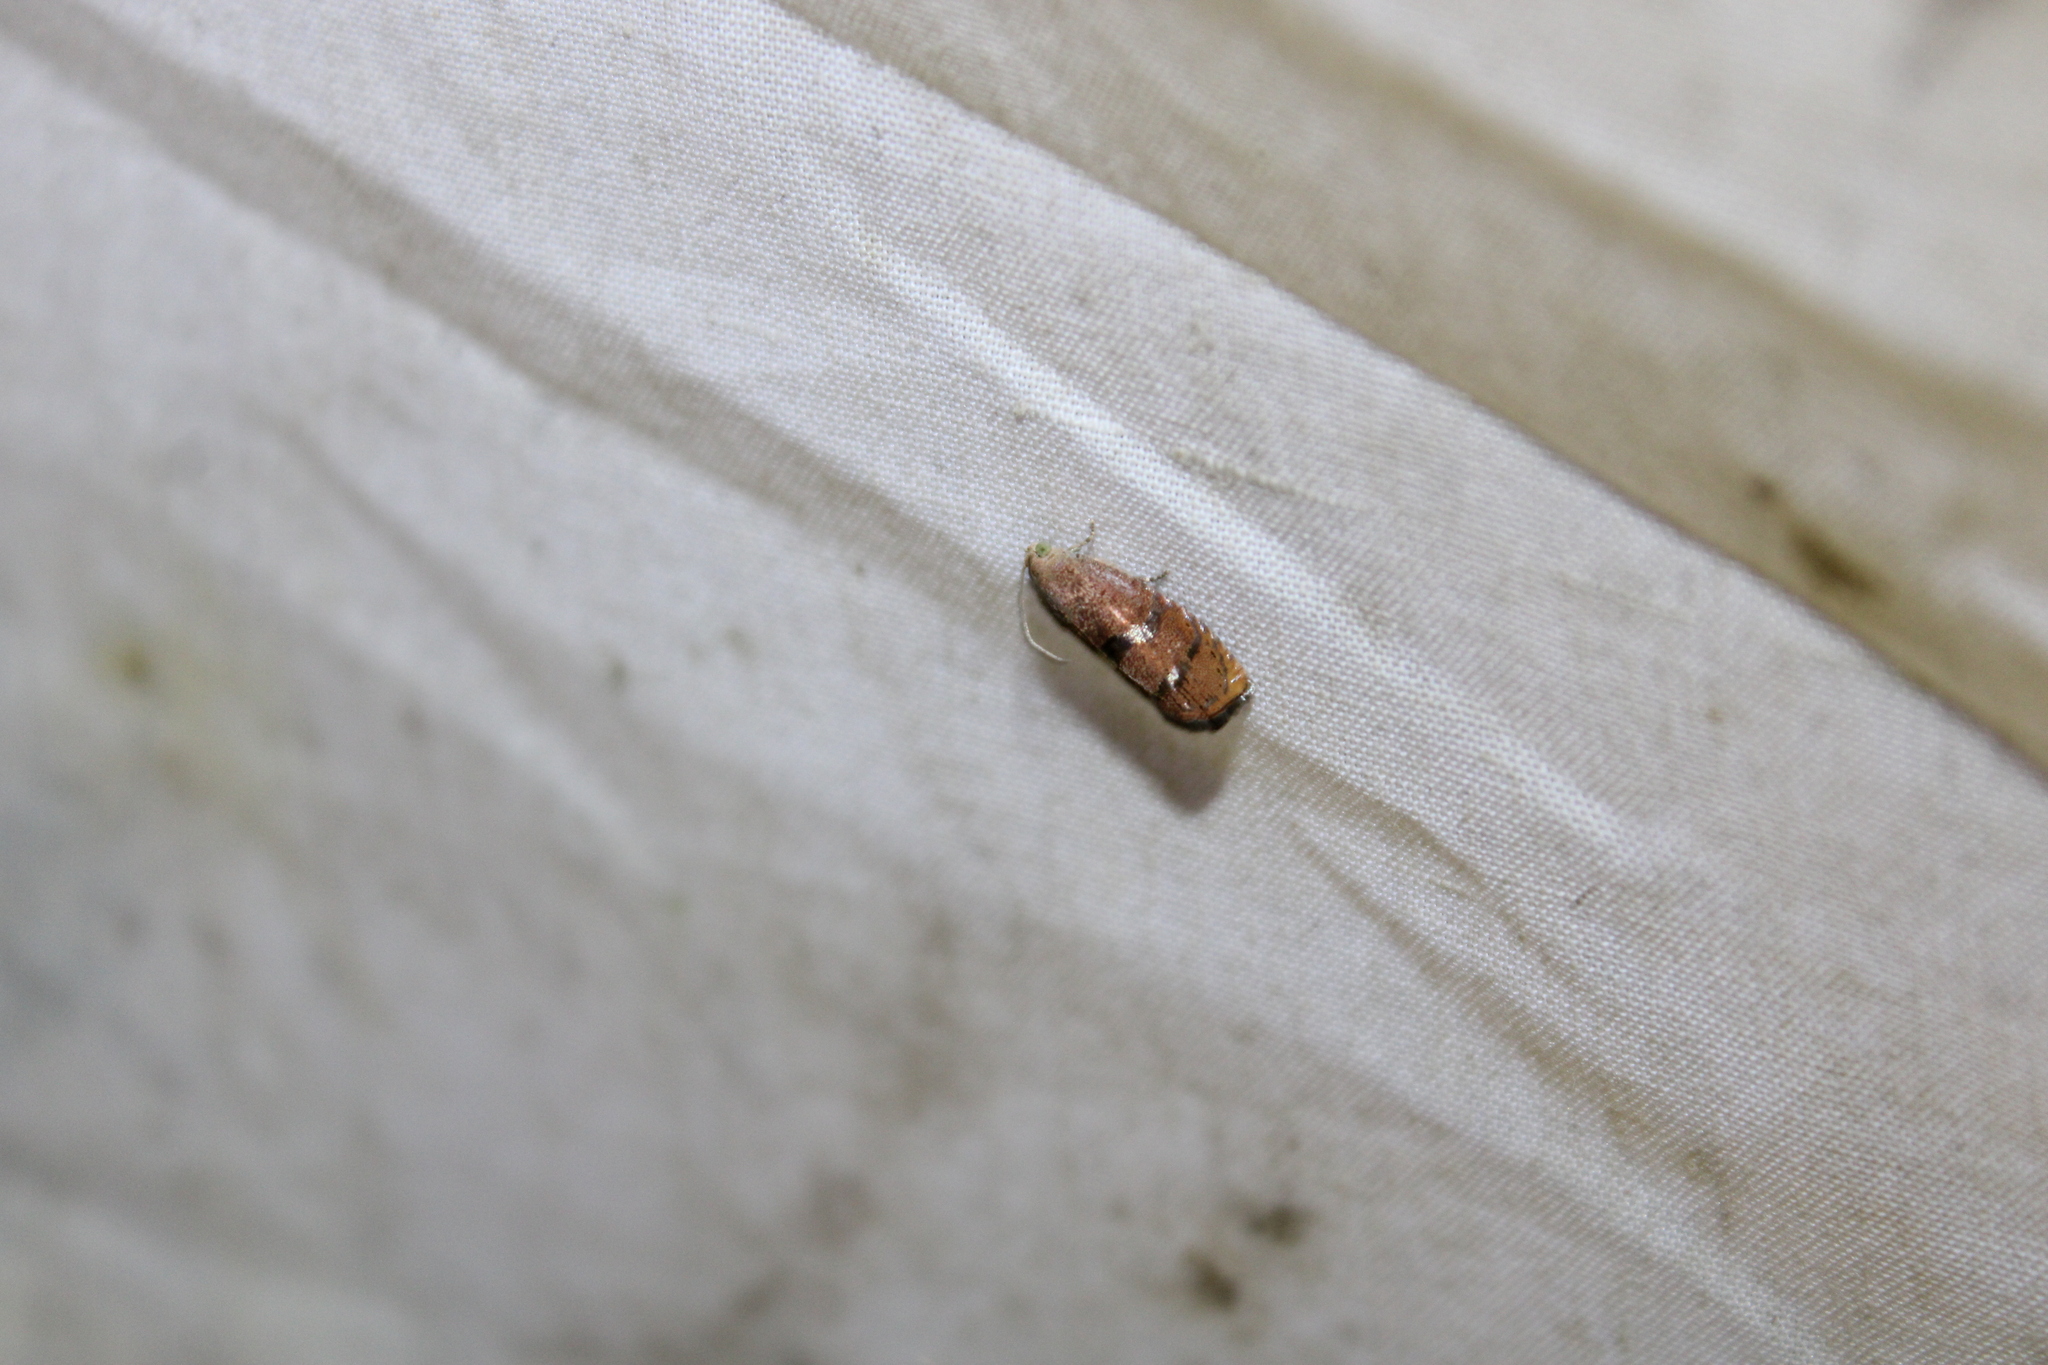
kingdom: Animalia
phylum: Arthropoda
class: Insecta
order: Lepidoptera
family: Tortricidae
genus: Cydia
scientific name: Cydia latiferreana
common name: Filbertworm moth
